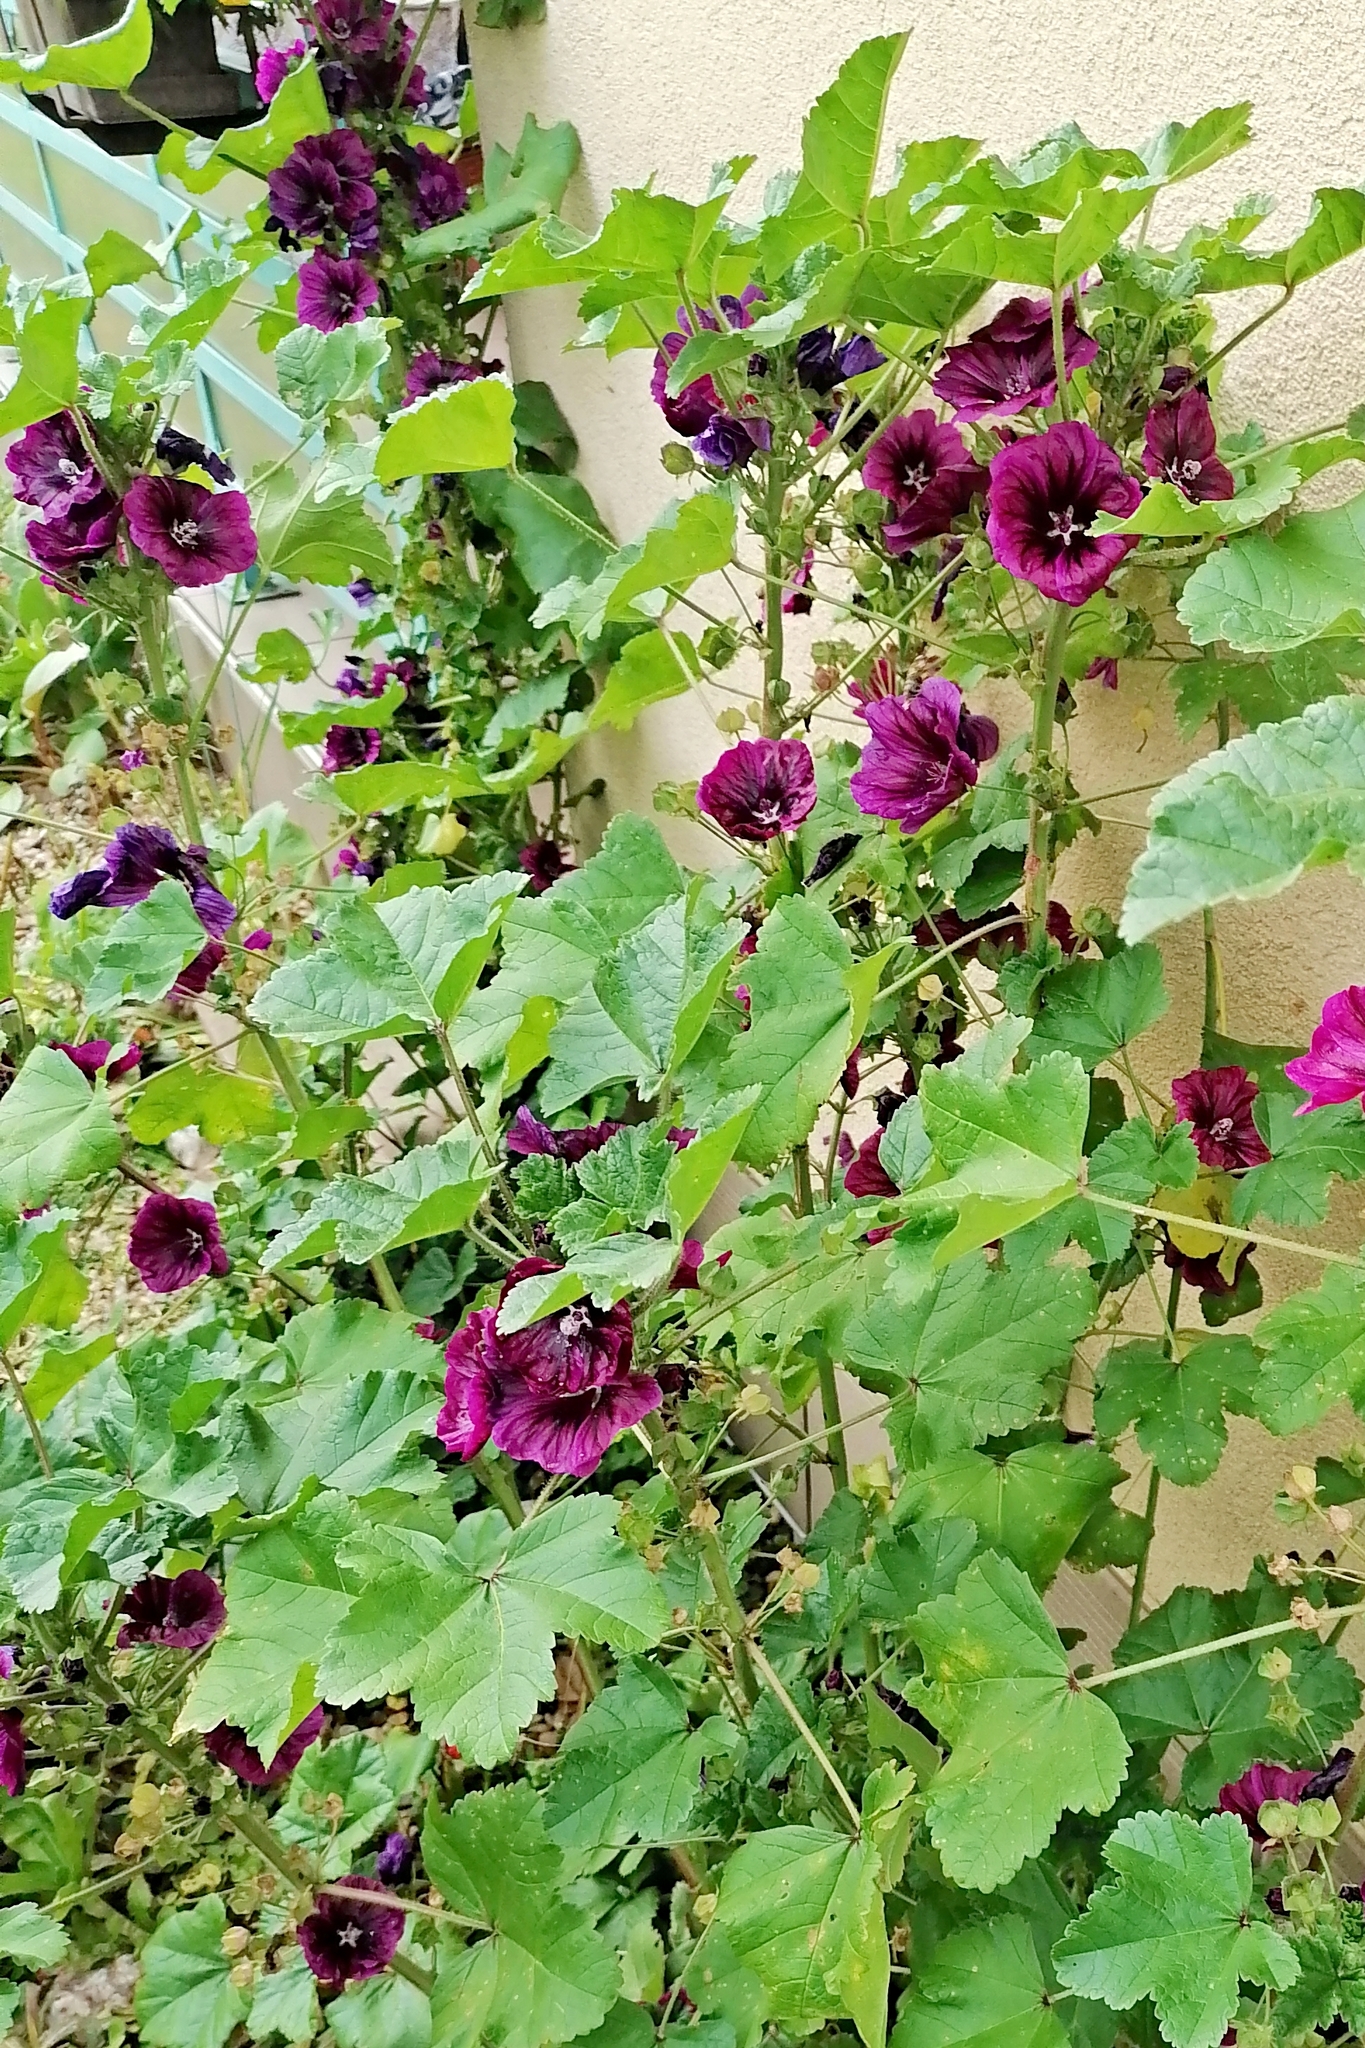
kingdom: Plantae
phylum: Tracheophyta
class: Magnoliopsida
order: Malvales
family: Malvaceae
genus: Malva
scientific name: Malva sylvestris
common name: Common mallow
